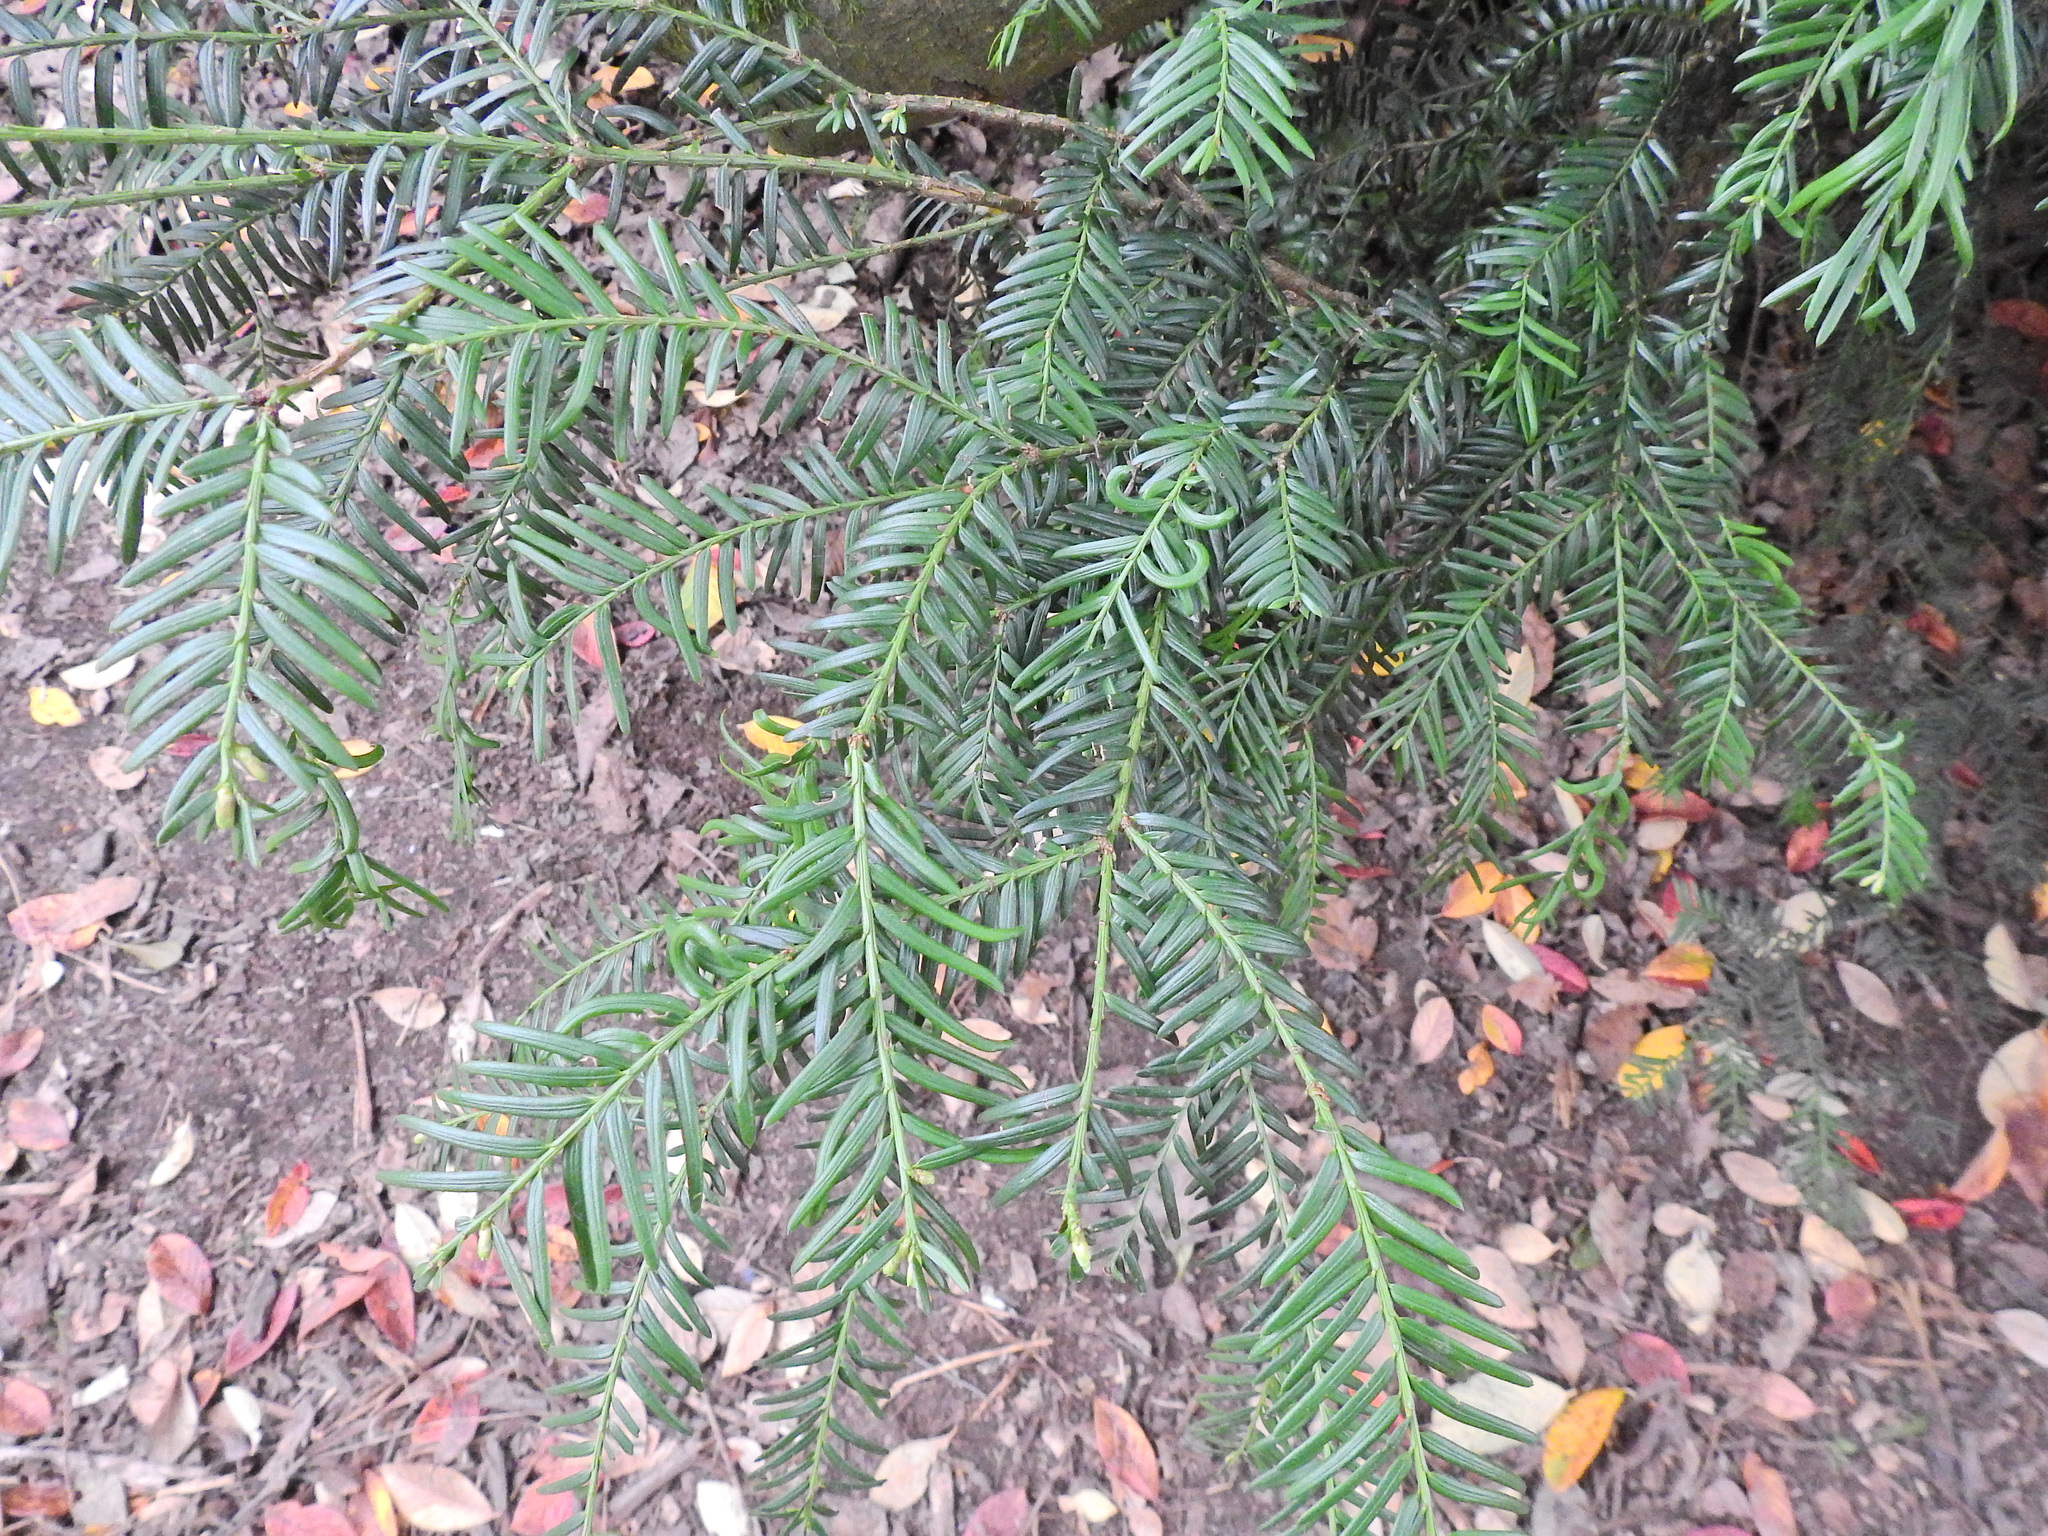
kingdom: Plantae
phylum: Tracheophyta
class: Pinopsida
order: Pinales
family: Taxaceae
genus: Taxus
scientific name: Taxus baccata
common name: Yew
